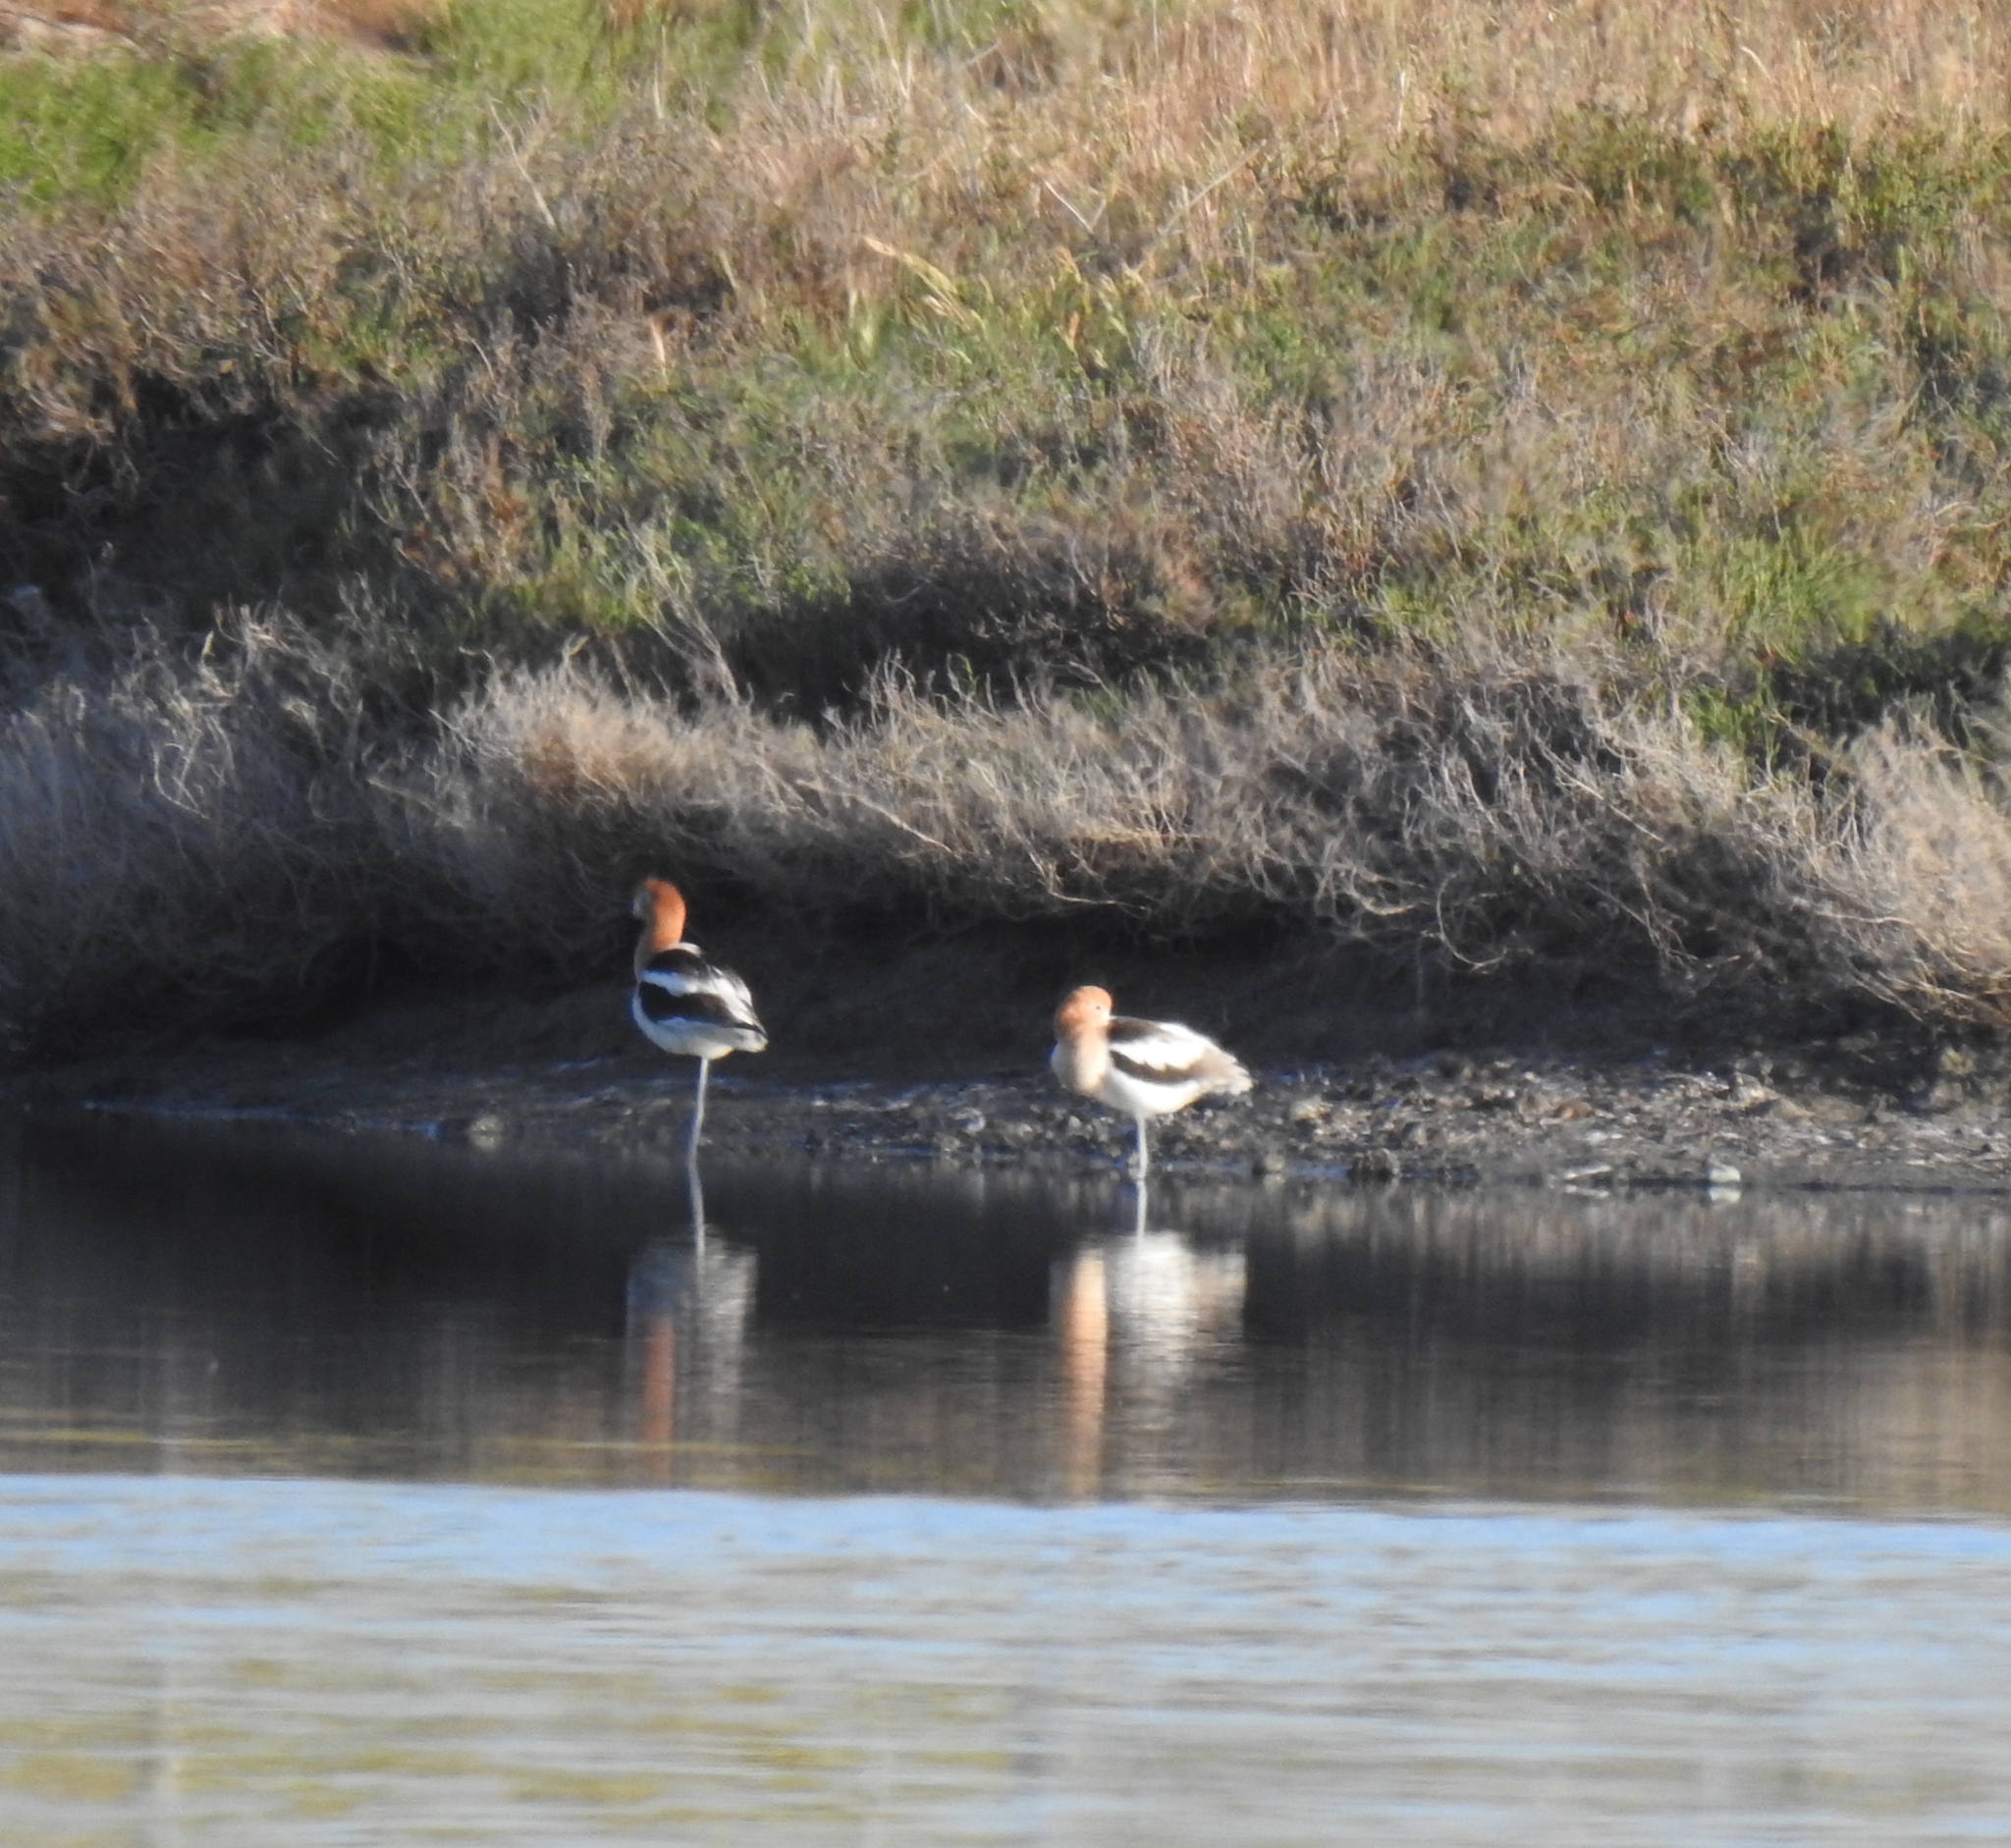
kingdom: Animalia
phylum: Chordata
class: Aves
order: Charadriiformes
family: Recurvirostridae
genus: Recurvirostra
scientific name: Recurvirostra americana
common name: American avocet
